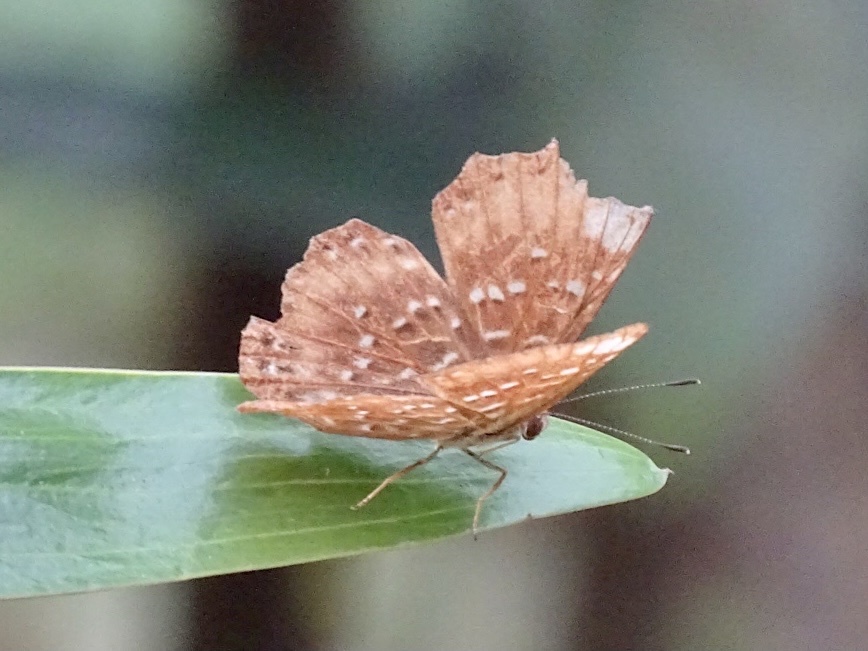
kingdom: Animalia
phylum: Arthropoda
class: Insecta
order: Lepidoptera
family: Riodinidae
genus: Zemeros
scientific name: Zemeros flegyas
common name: Punchinello
